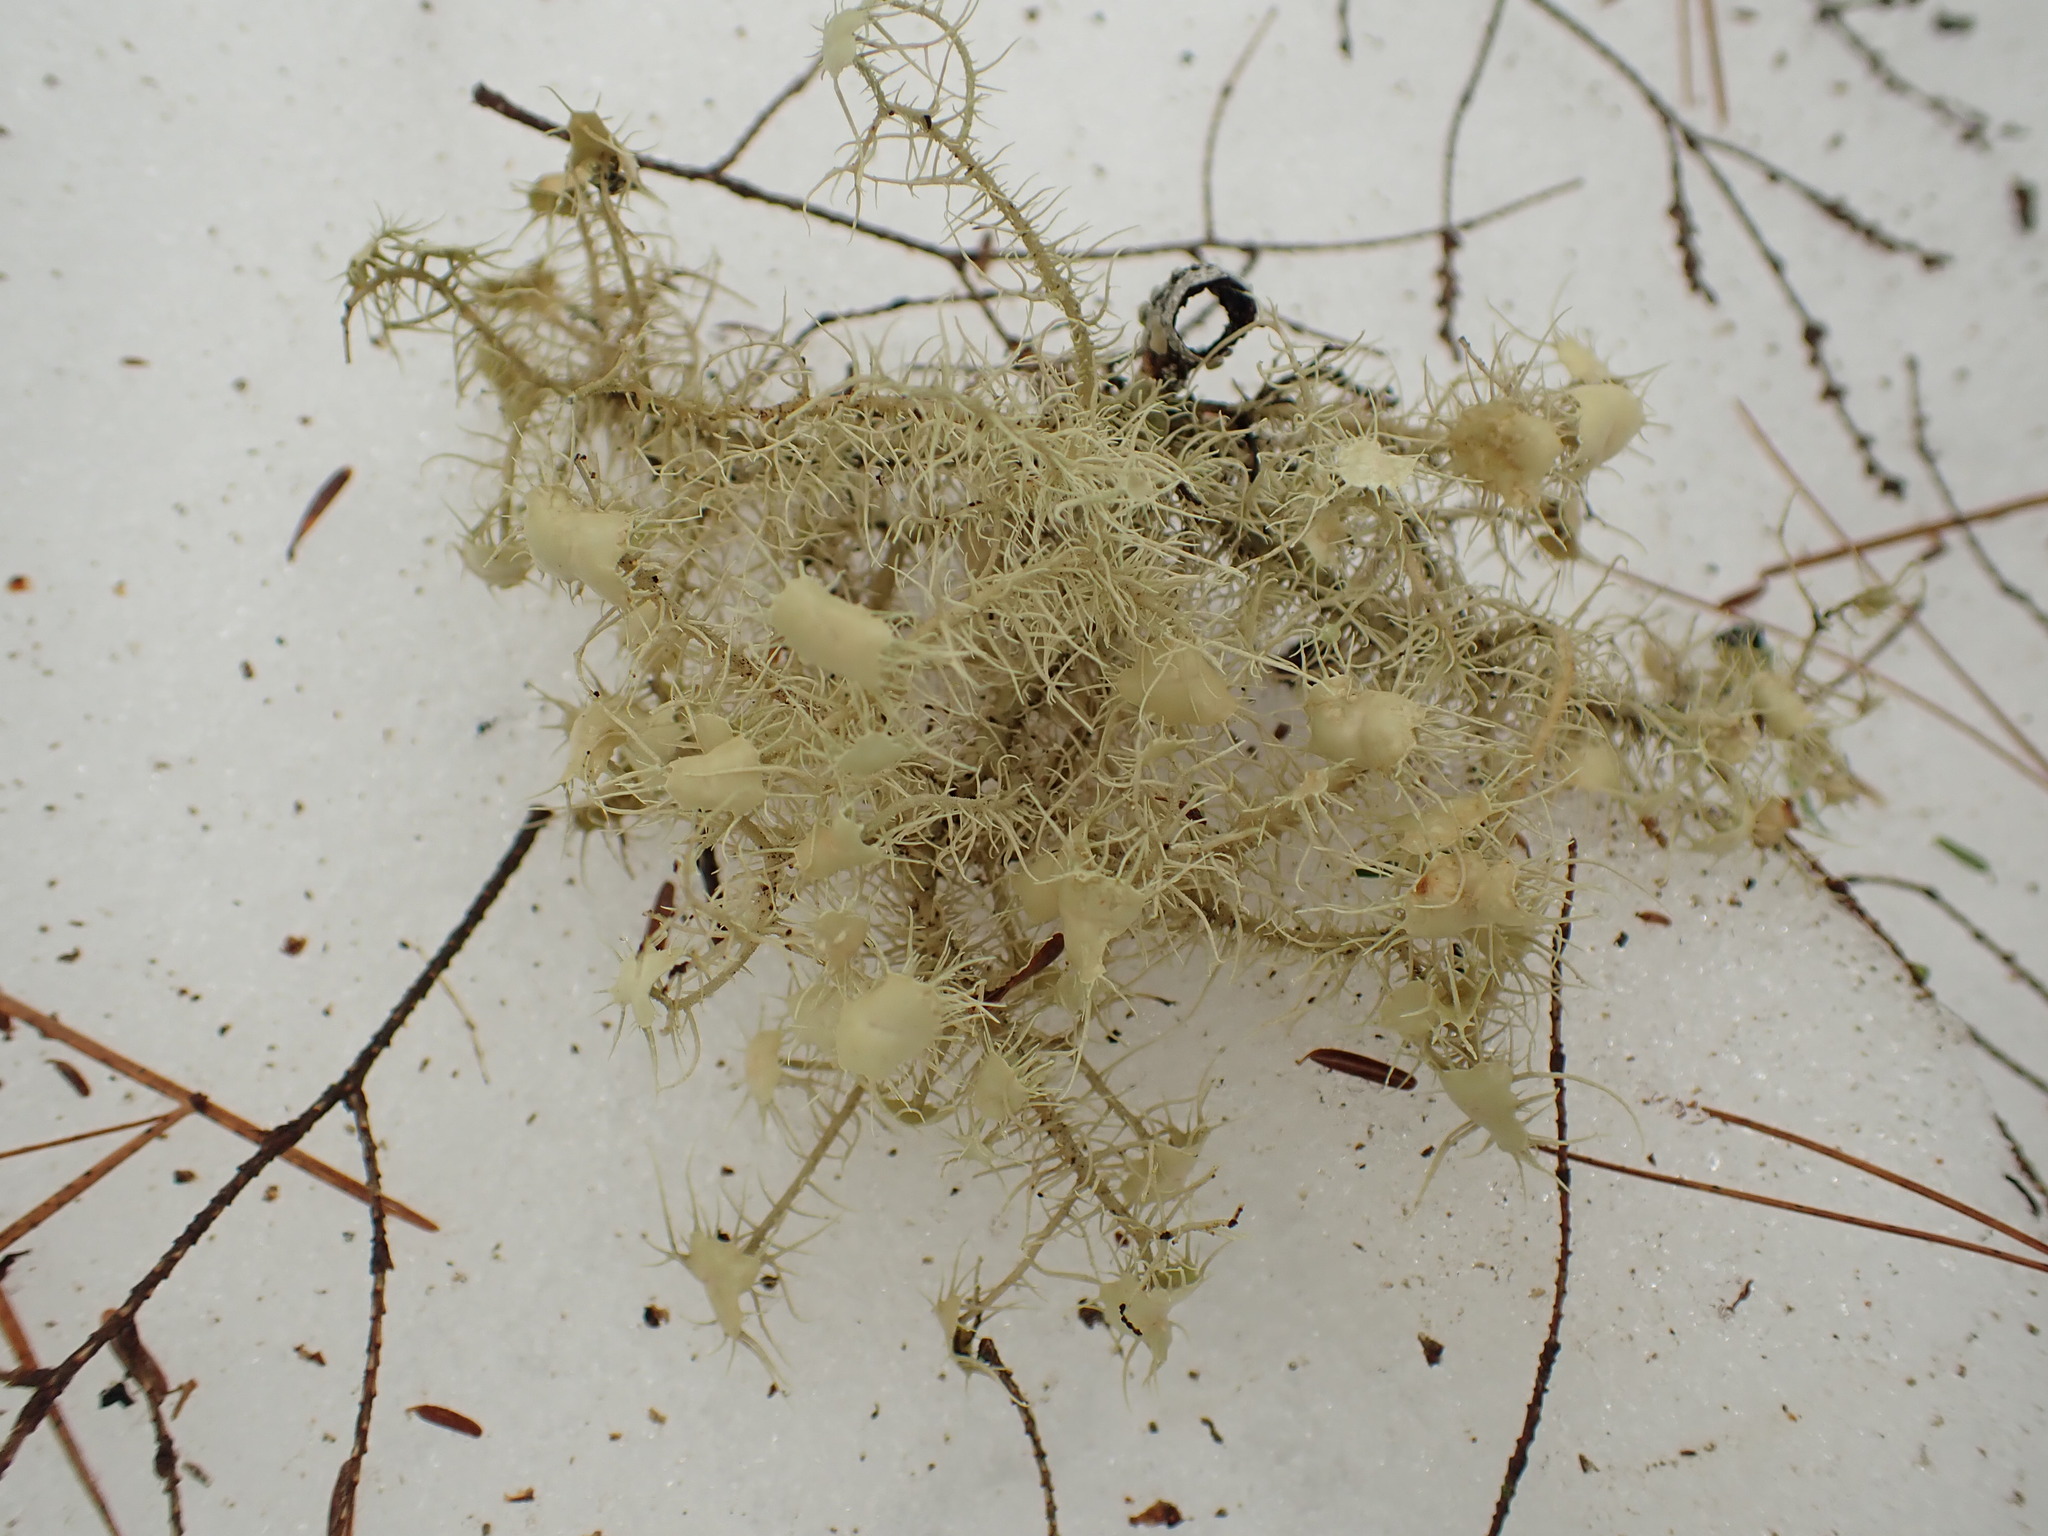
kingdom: Fungi
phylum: Ascomycota
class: Lecanoromycetes
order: Lecanorales
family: Parmeliaceae
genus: Usnea
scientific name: Usnea strigosa
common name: Bushy beard lichen
